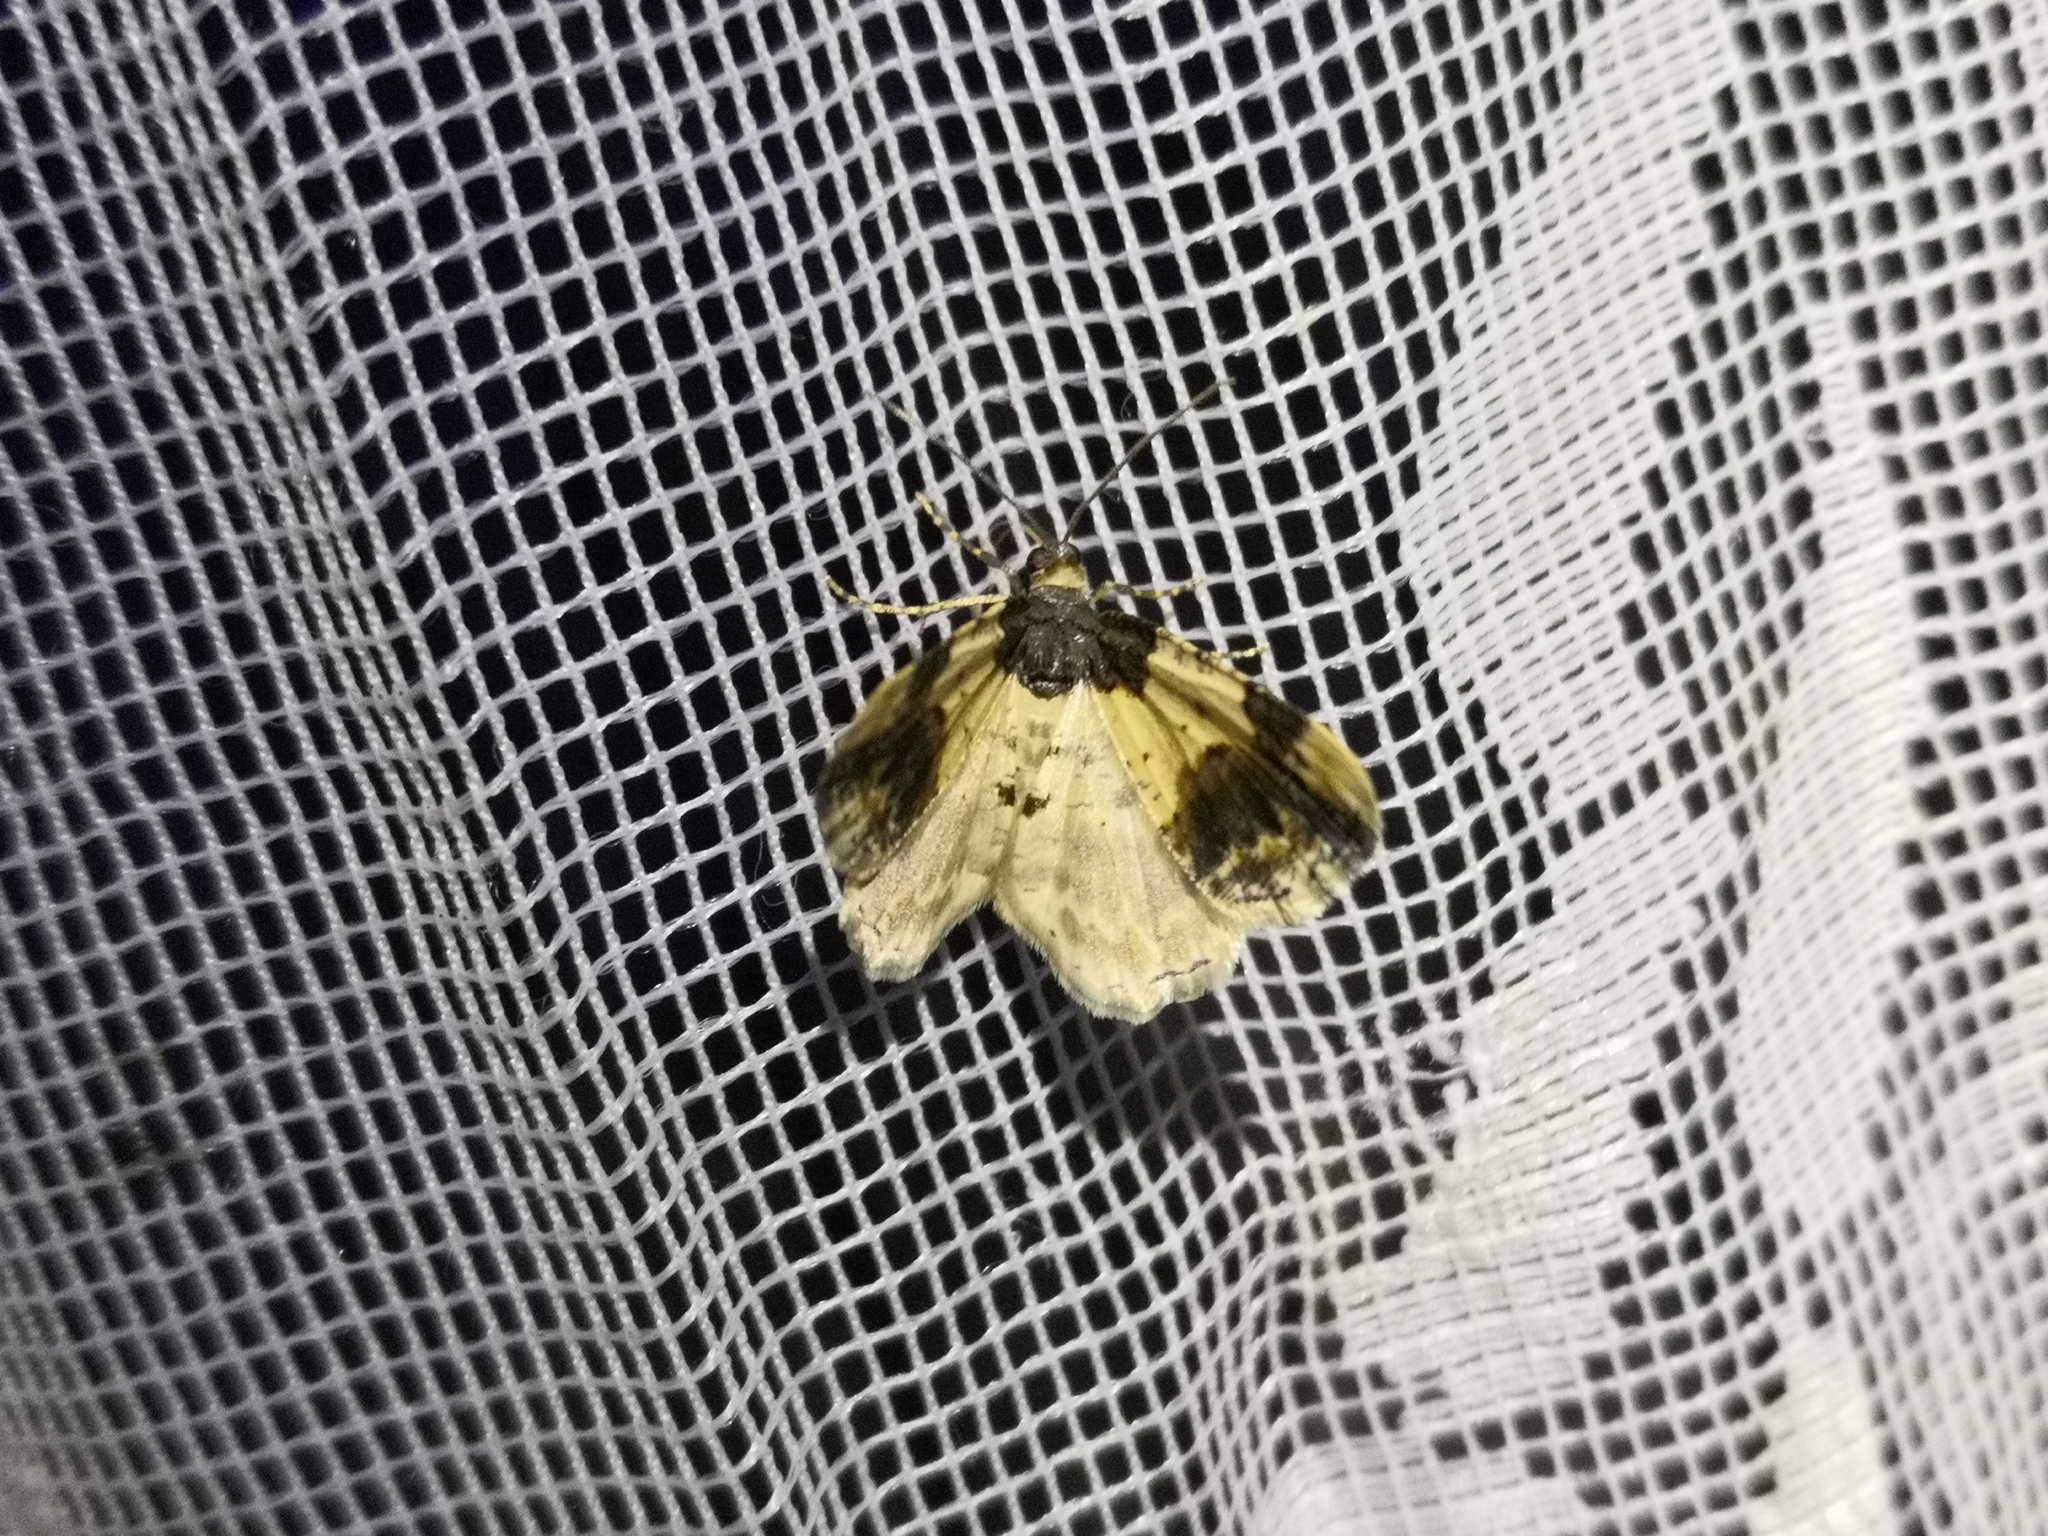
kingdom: Animalia
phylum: Arthropoda
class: Insecta
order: Lepidoptera
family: Geometridae
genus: Ligdia
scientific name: Ligdia adustata
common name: Scorched carpet
